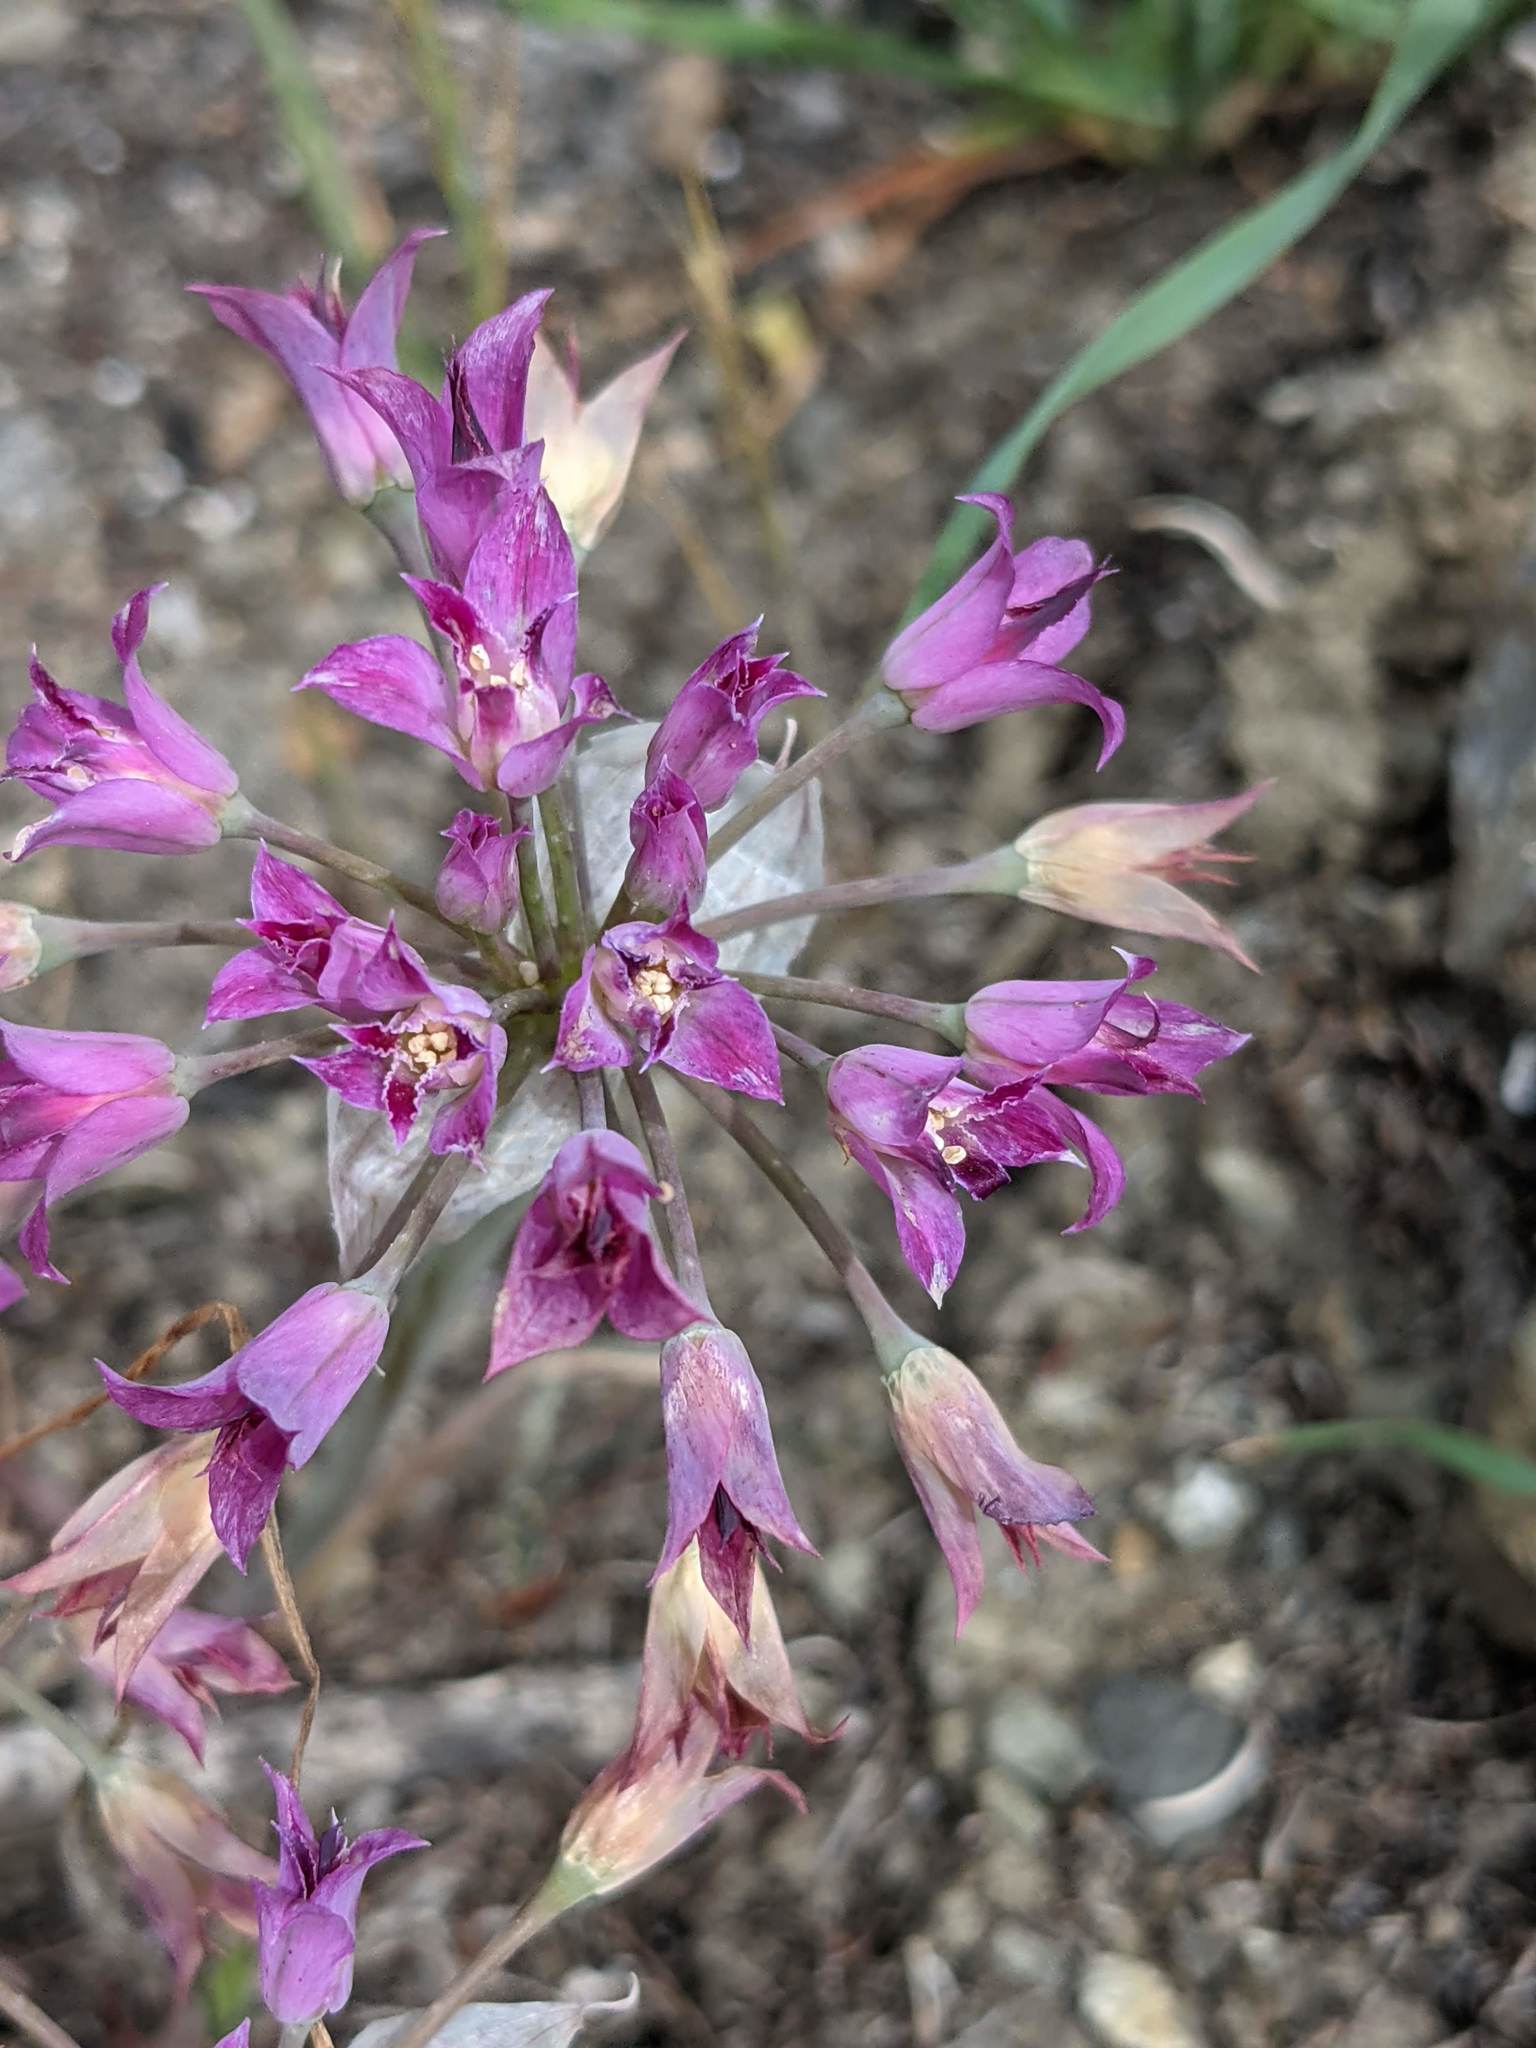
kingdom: Plantae
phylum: Tracheophyta
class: Liliopsida
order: Asparagales
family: Amaryllidaceae
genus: Allium
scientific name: Allium crispum
